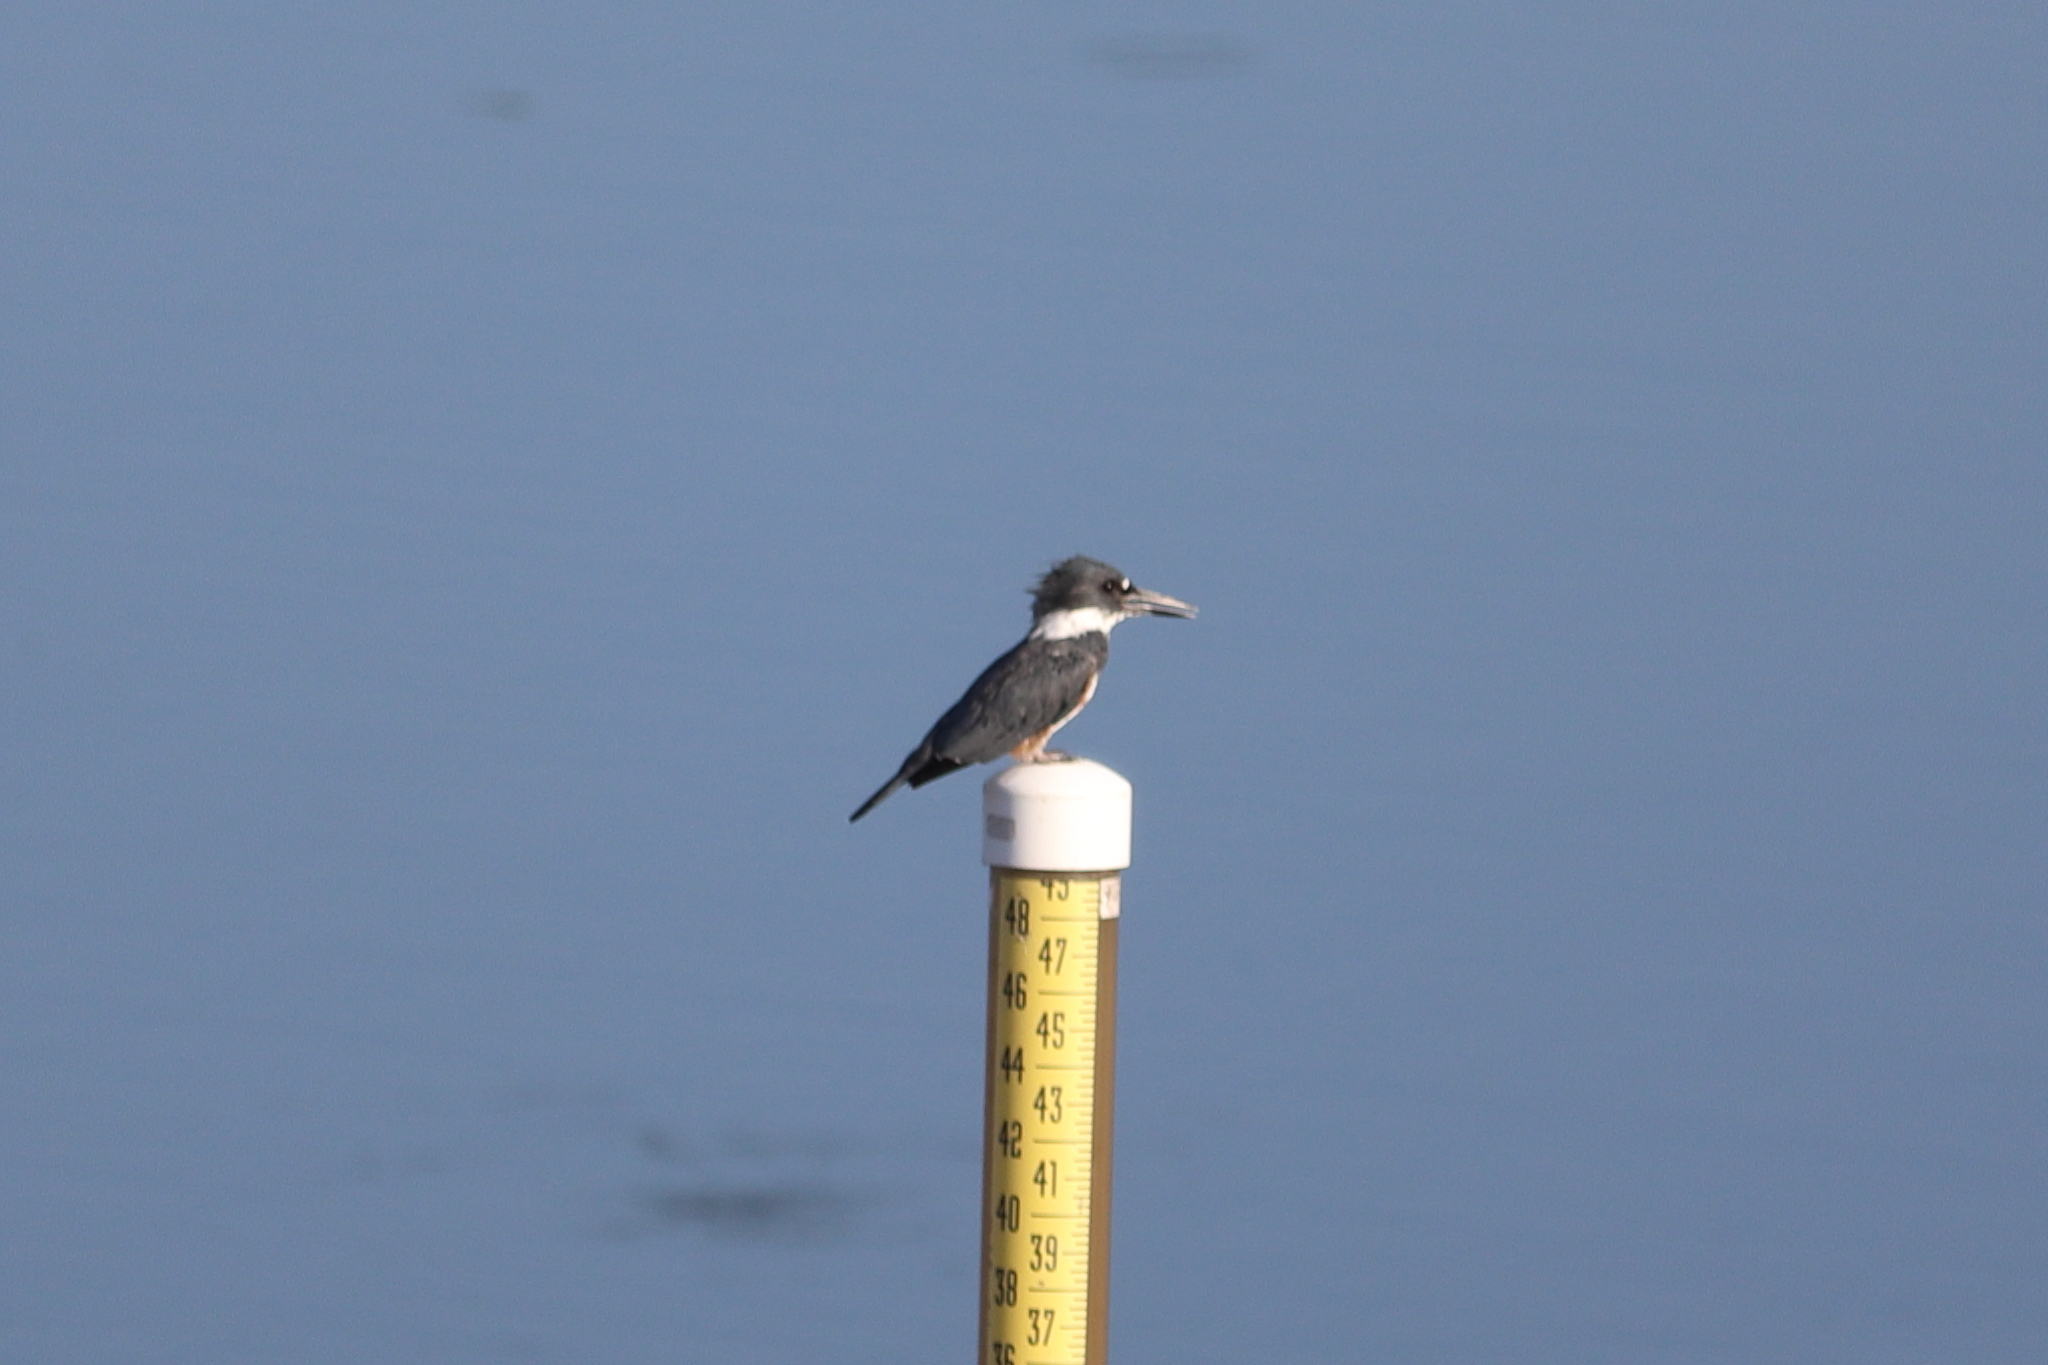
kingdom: Animalia
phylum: Chordata
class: Aves
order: Coraciiformes
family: Alcedinidae
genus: Megaceryle
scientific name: Megaceryle alcyon
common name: Belted kingfisher
